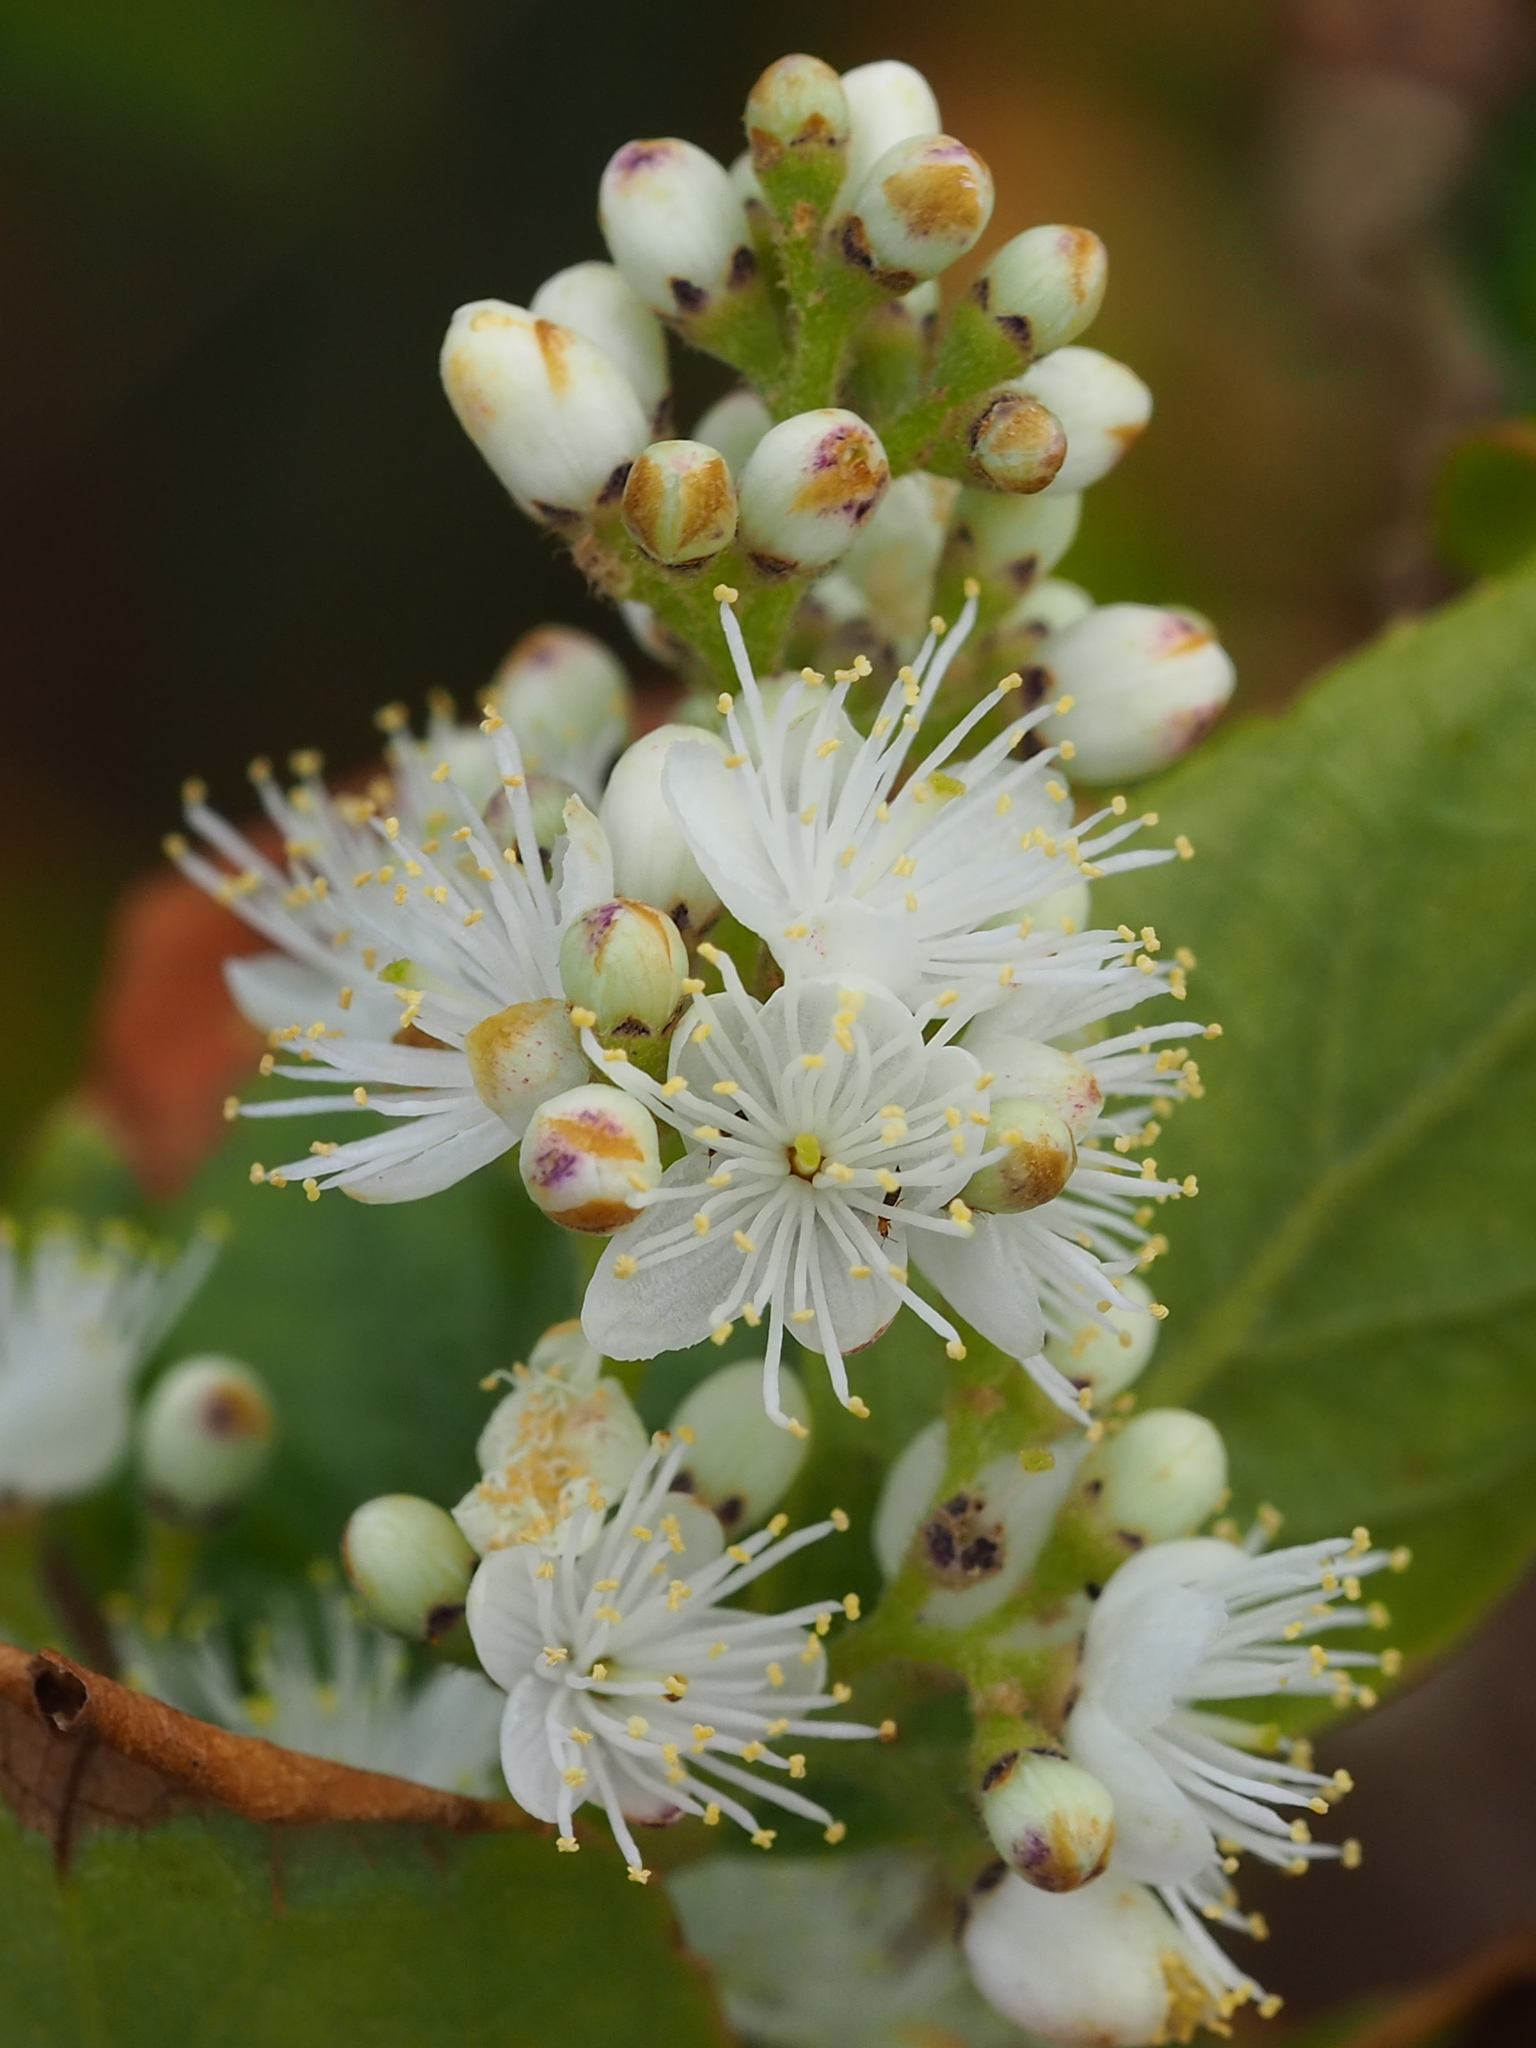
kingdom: Plantae
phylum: Tracheophyta
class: Magnoliopsida
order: Ericales
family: Symplocaceae
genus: Symplocos
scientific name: Symplocos paniculata
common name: Sapphire-berry
